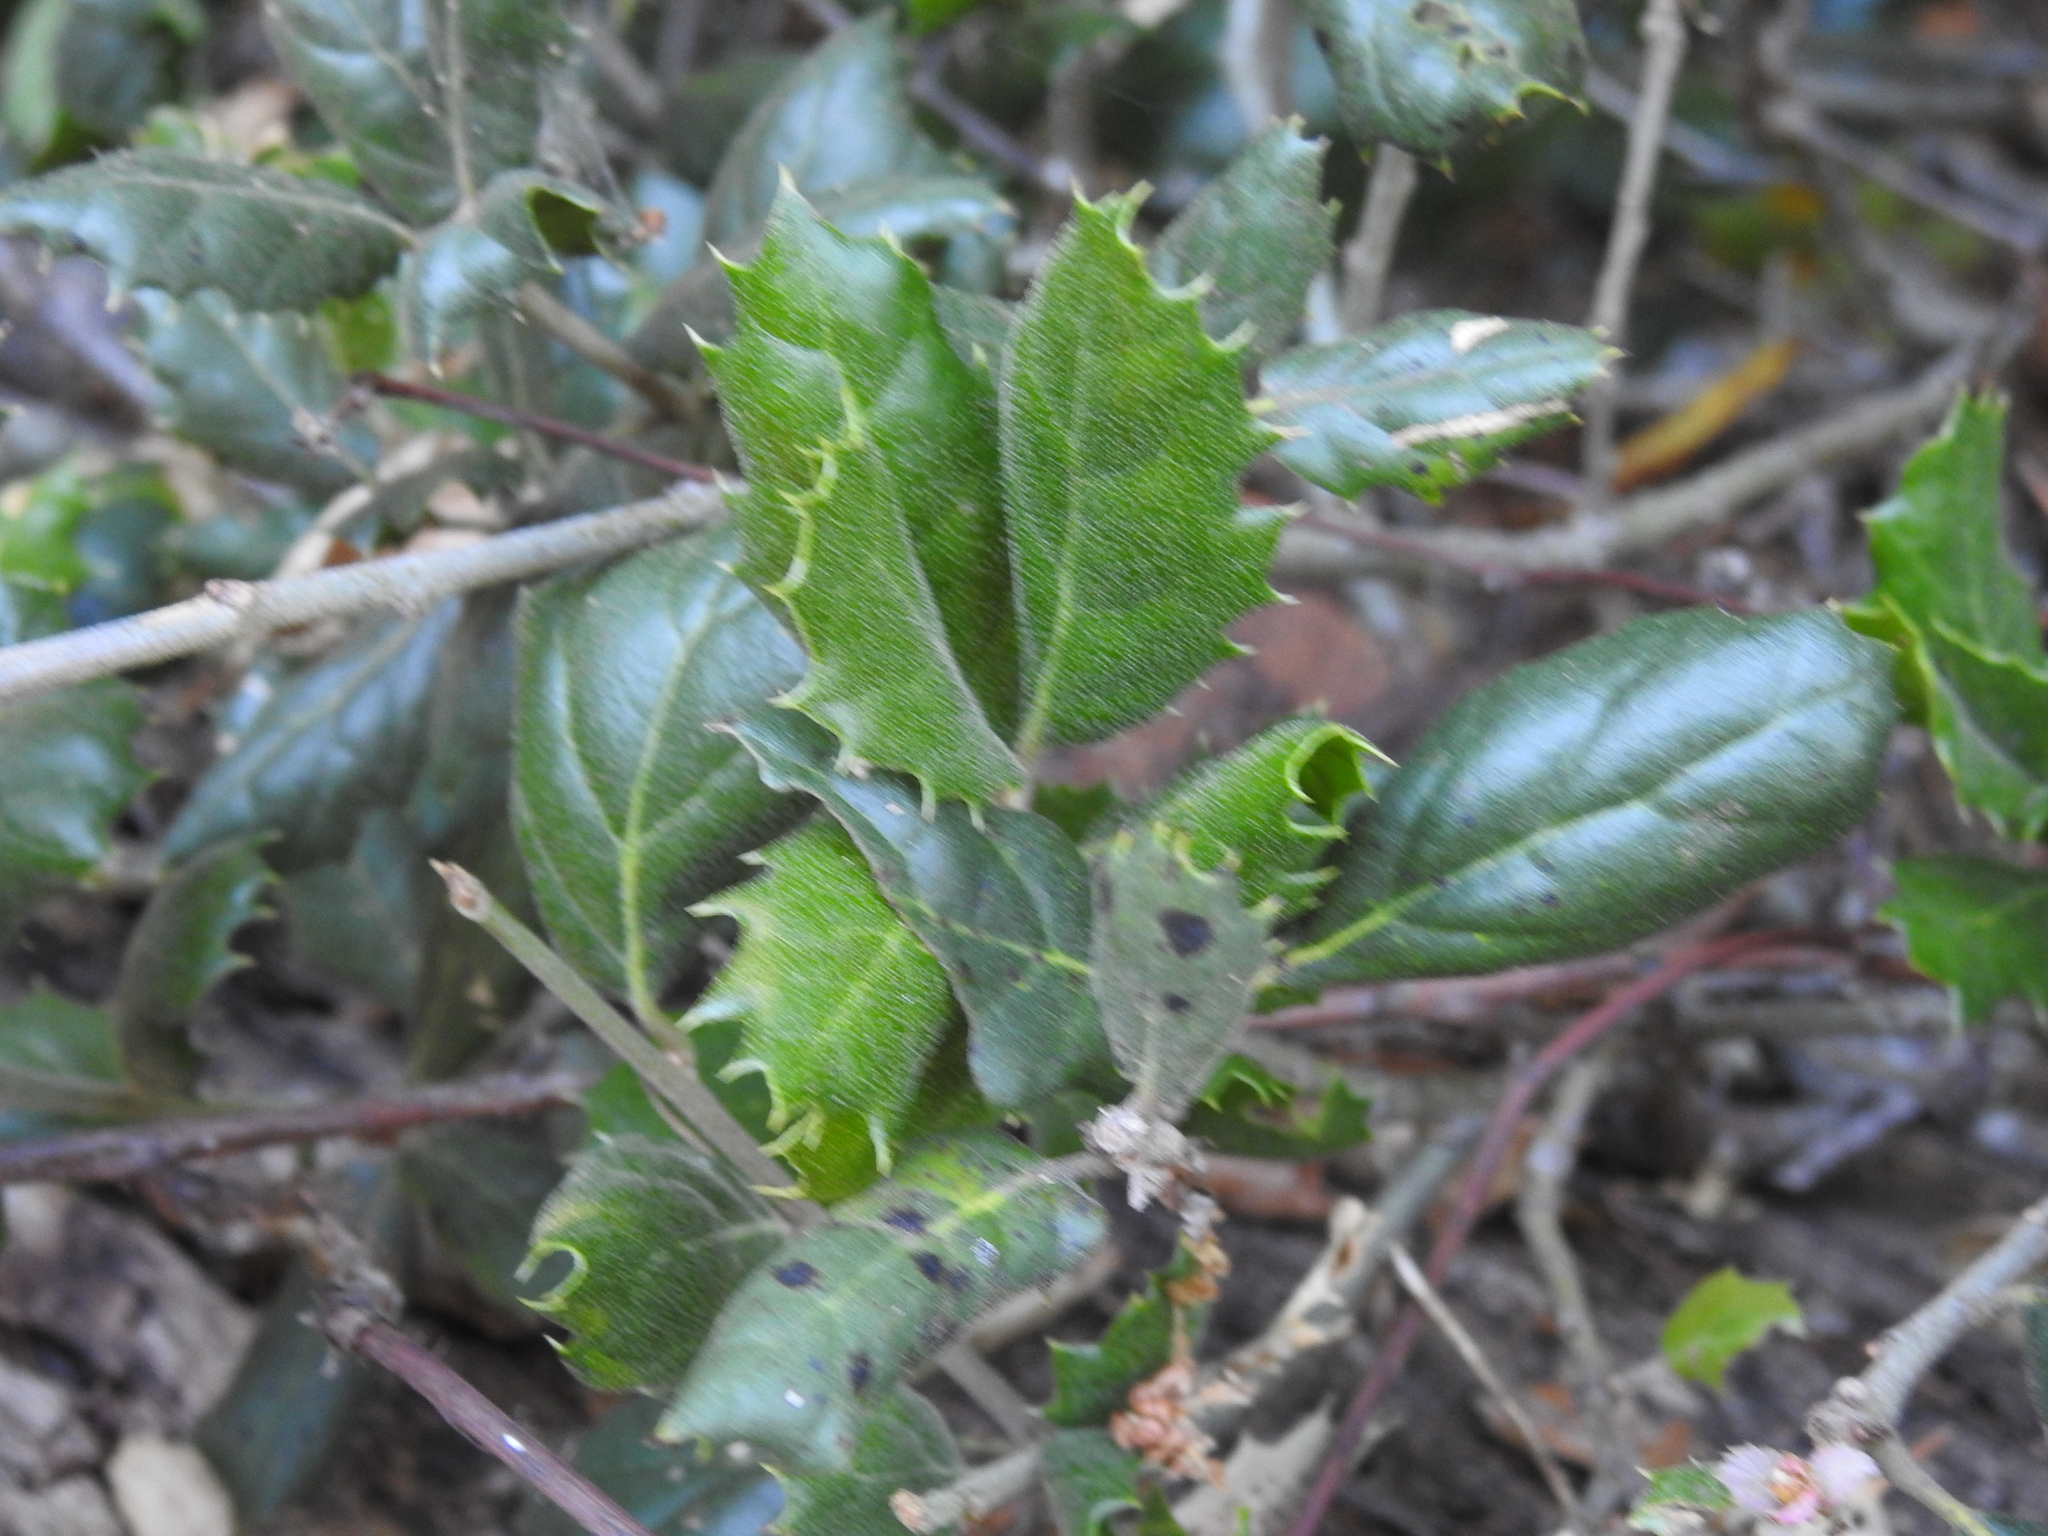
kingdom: Plantae
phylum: Tracheophyta
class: Magnoliopsida
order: Fagales
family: Fagaceae
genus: Quercus
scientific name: Quercus agrifolia
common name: California live oak
